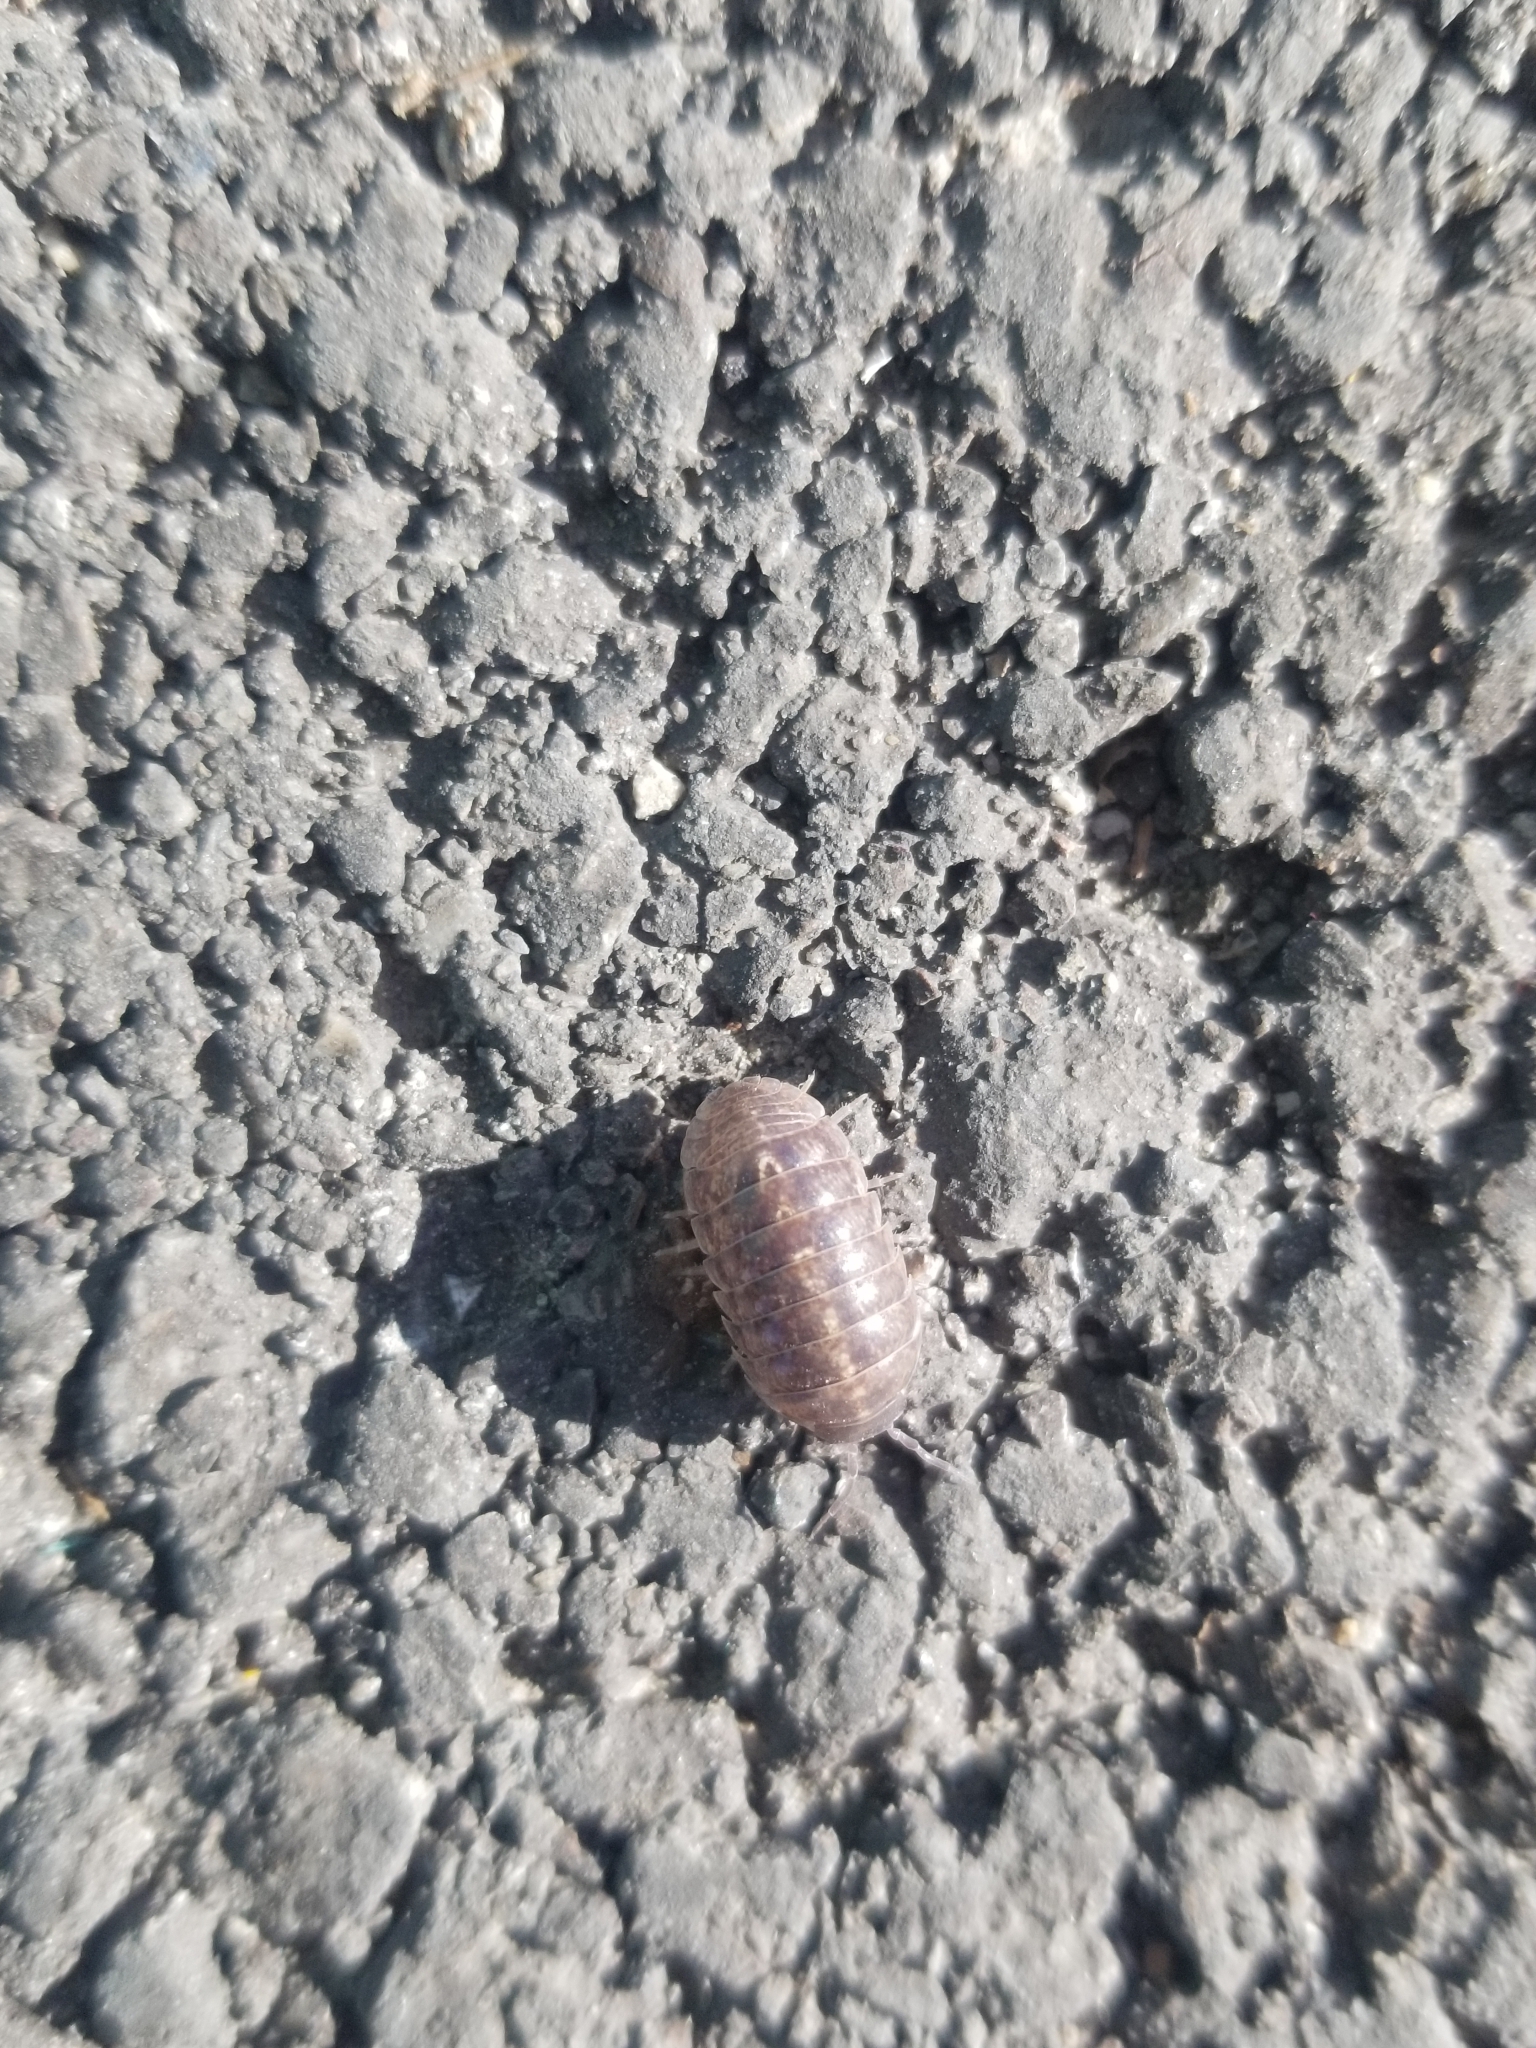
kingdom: Animalia
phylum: Arthropoda
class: Malacostraca
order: Isopoda
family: Armadillidiidae
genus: Armadillidium
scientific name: Armadillidium vulgare
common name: Common pill woodlouse
